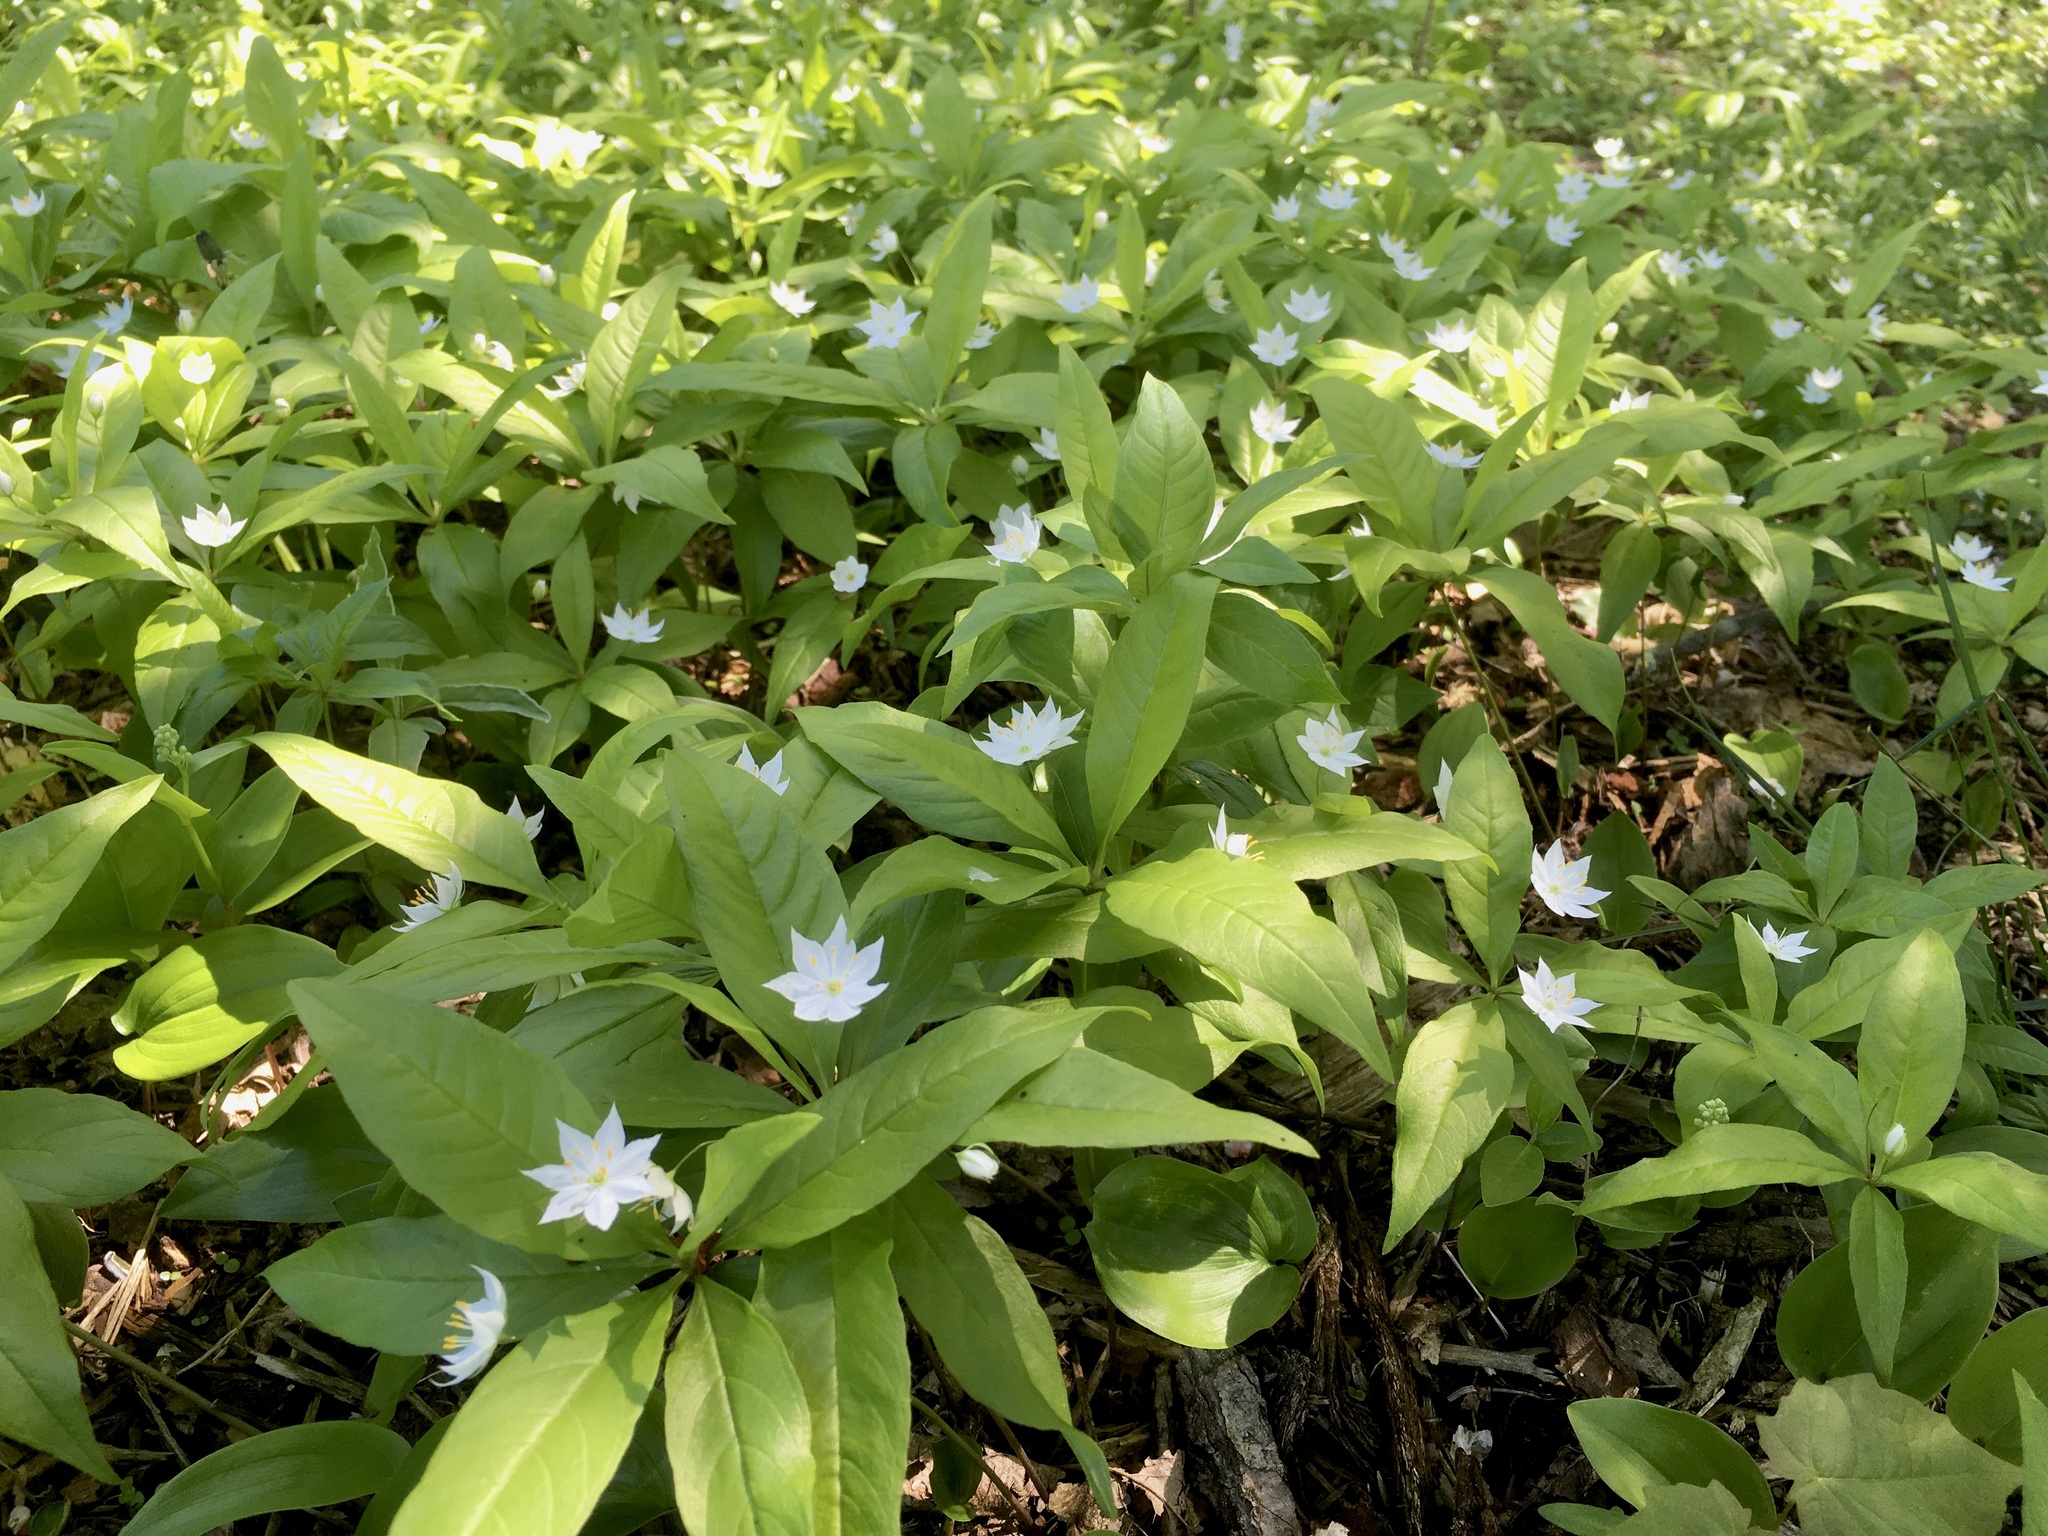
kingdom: Plantae
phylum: Tracheophyta
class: Magnoliopsida
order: Ericales
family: Primulaceae
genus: Lysimachia
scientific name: Lysimachia borealis
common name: American starflower
